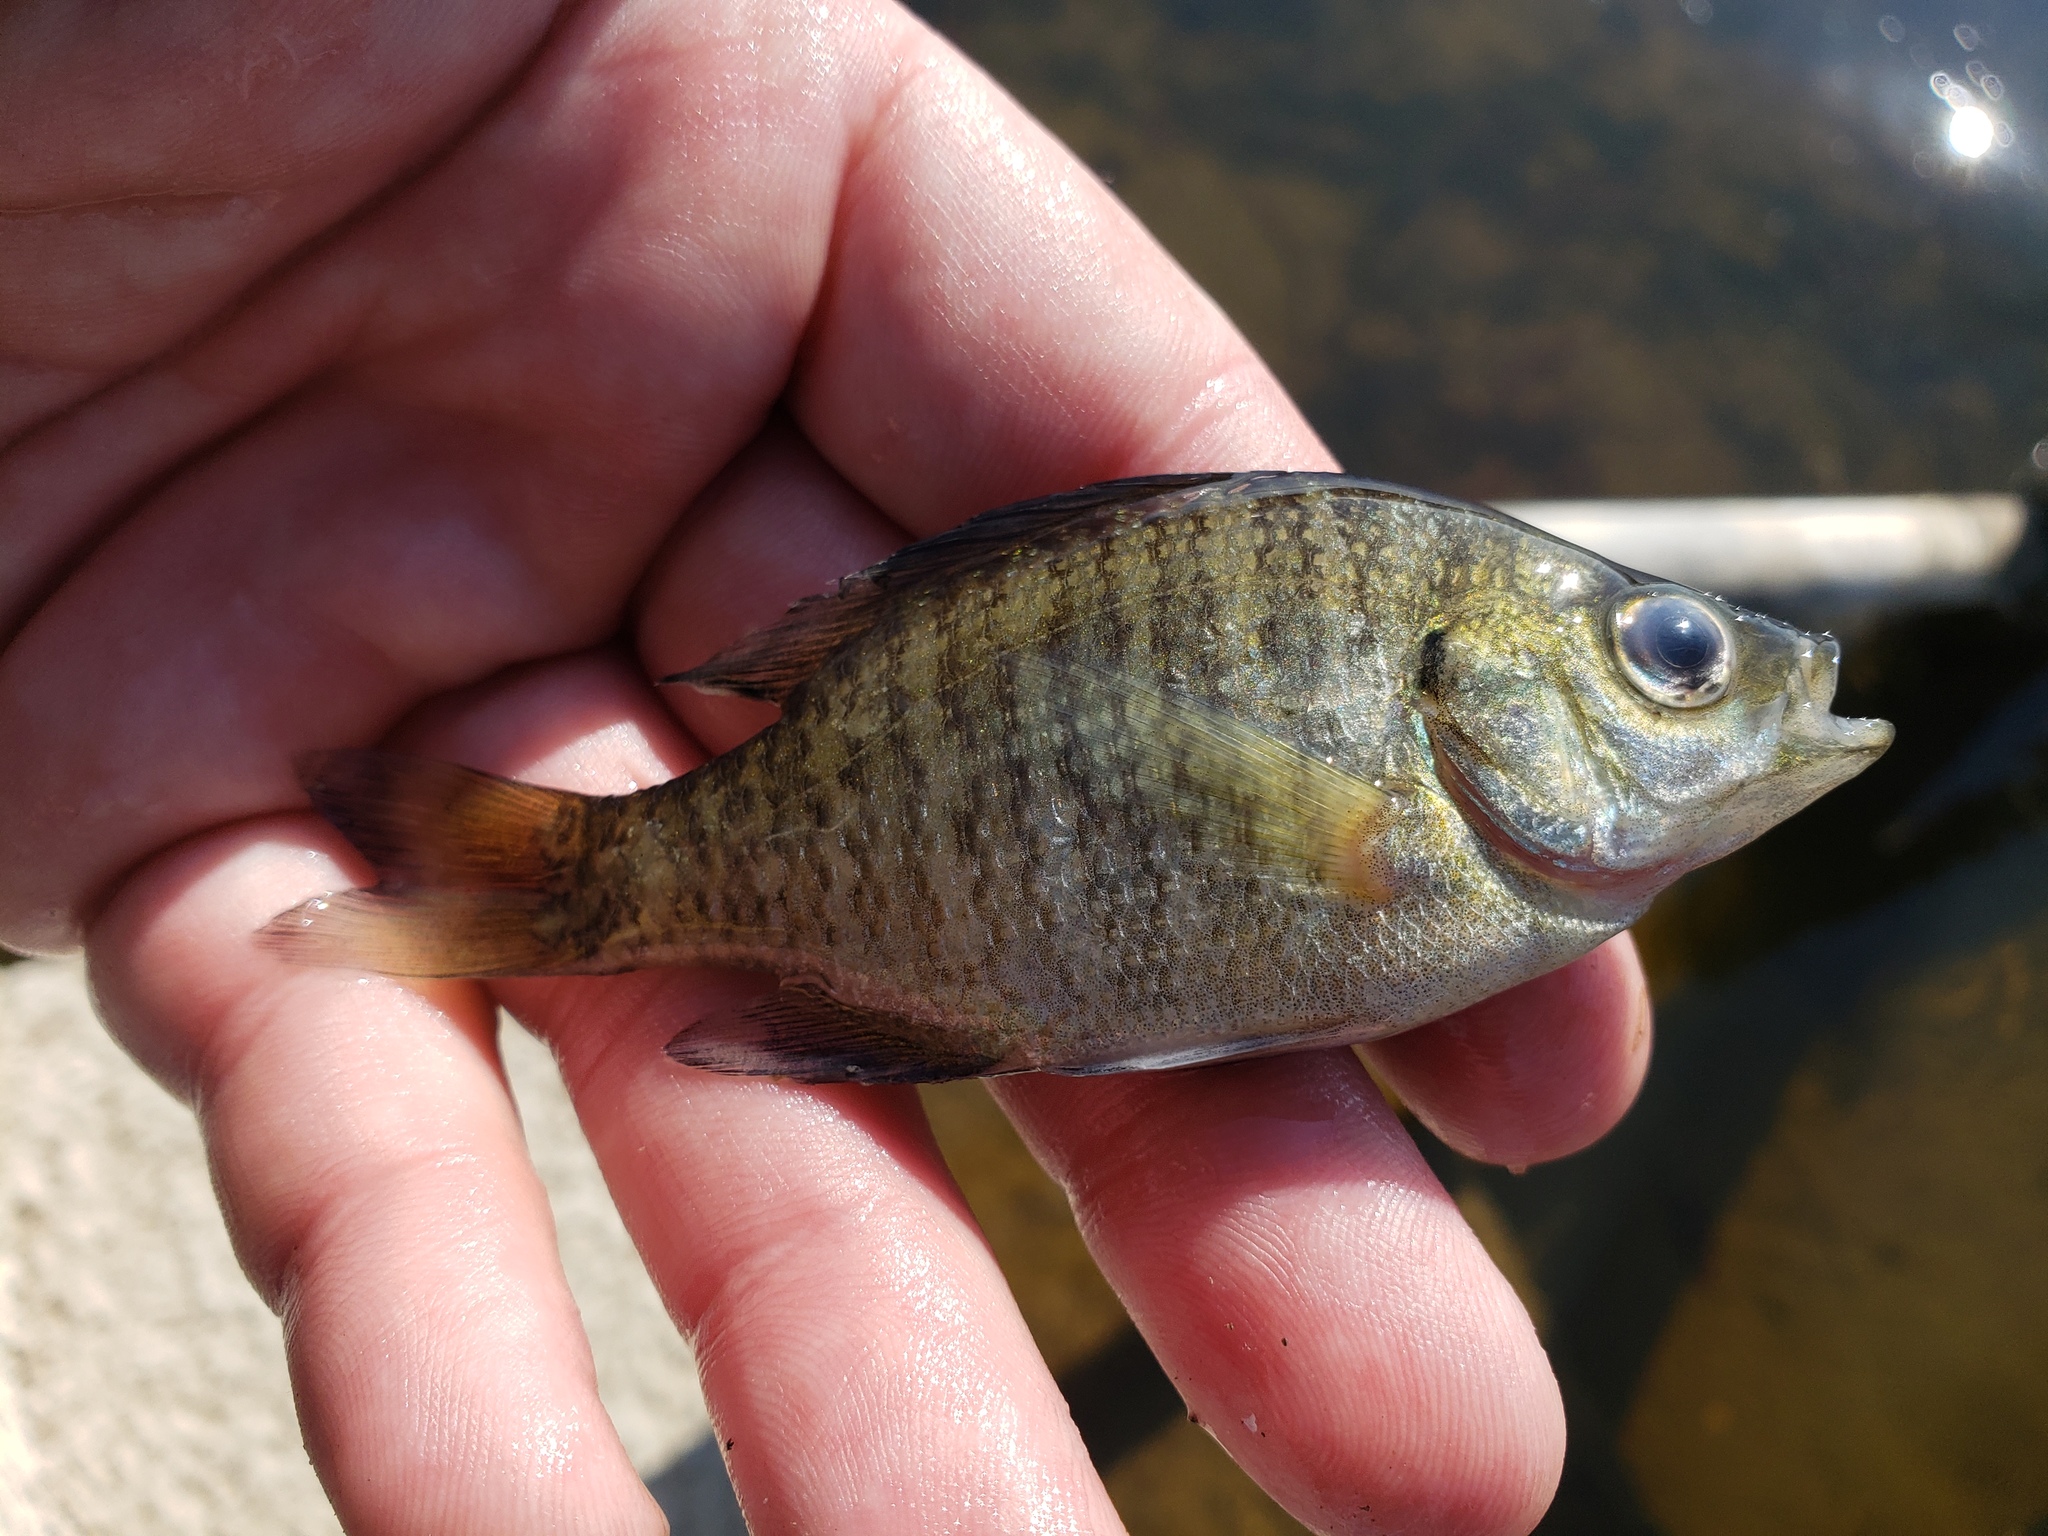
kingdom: Animalia
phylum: Chordata
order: Perciformes
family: Centrarchidae
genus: Lepomis
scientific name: Lepomis macrochirus
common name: Bluegill
